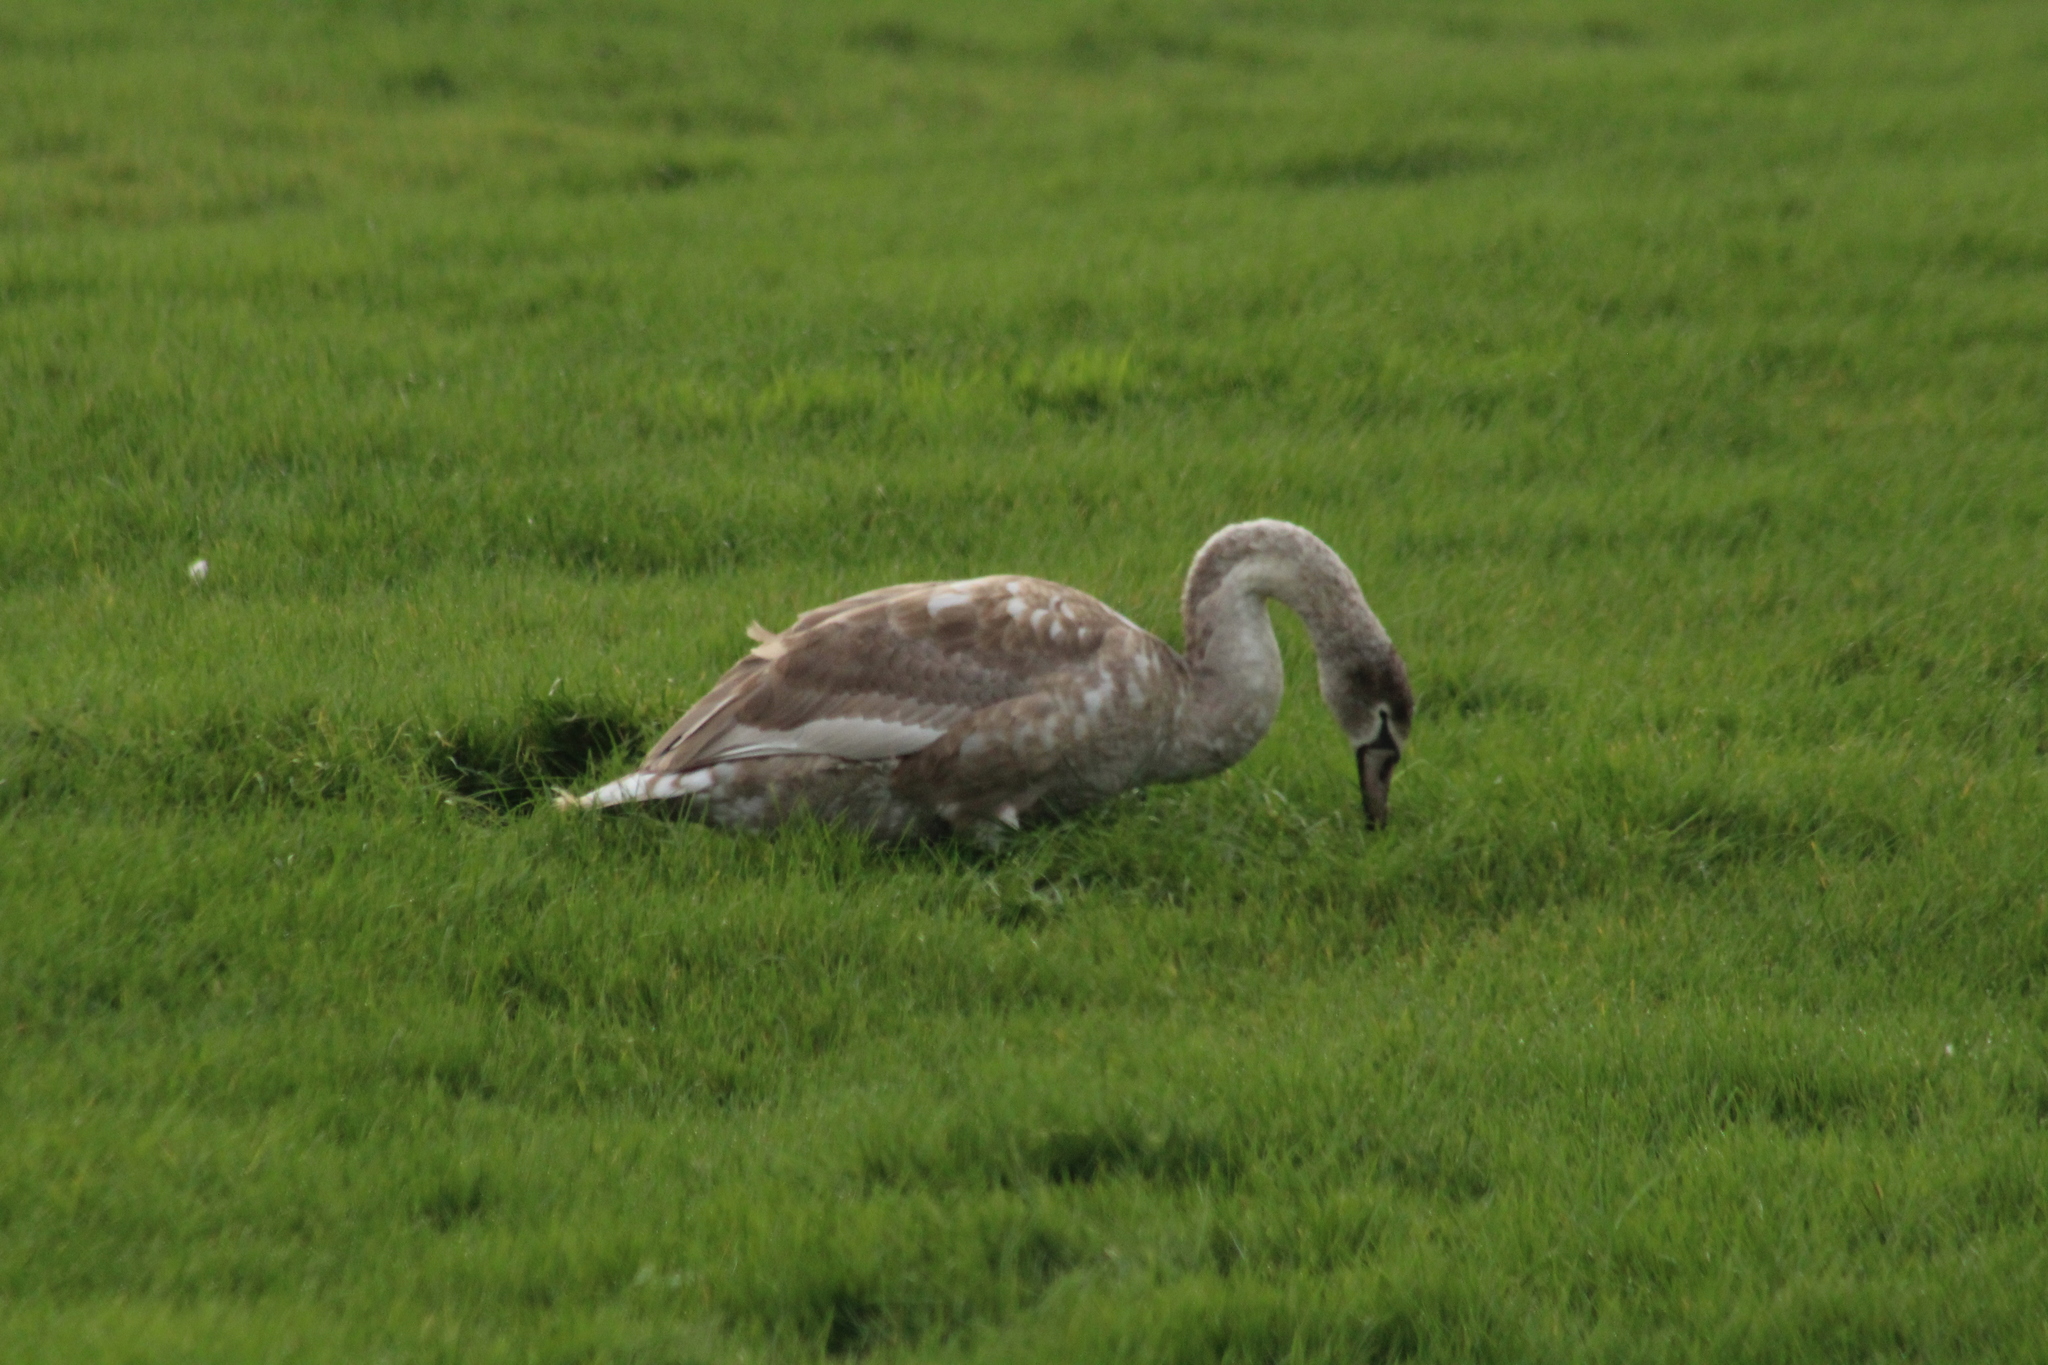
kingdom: Animalia
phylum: Chordata
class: Aves
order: Anseriformes
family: Anatidae
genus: Cygnus
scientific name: Cygnus olor
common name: Mute swan
